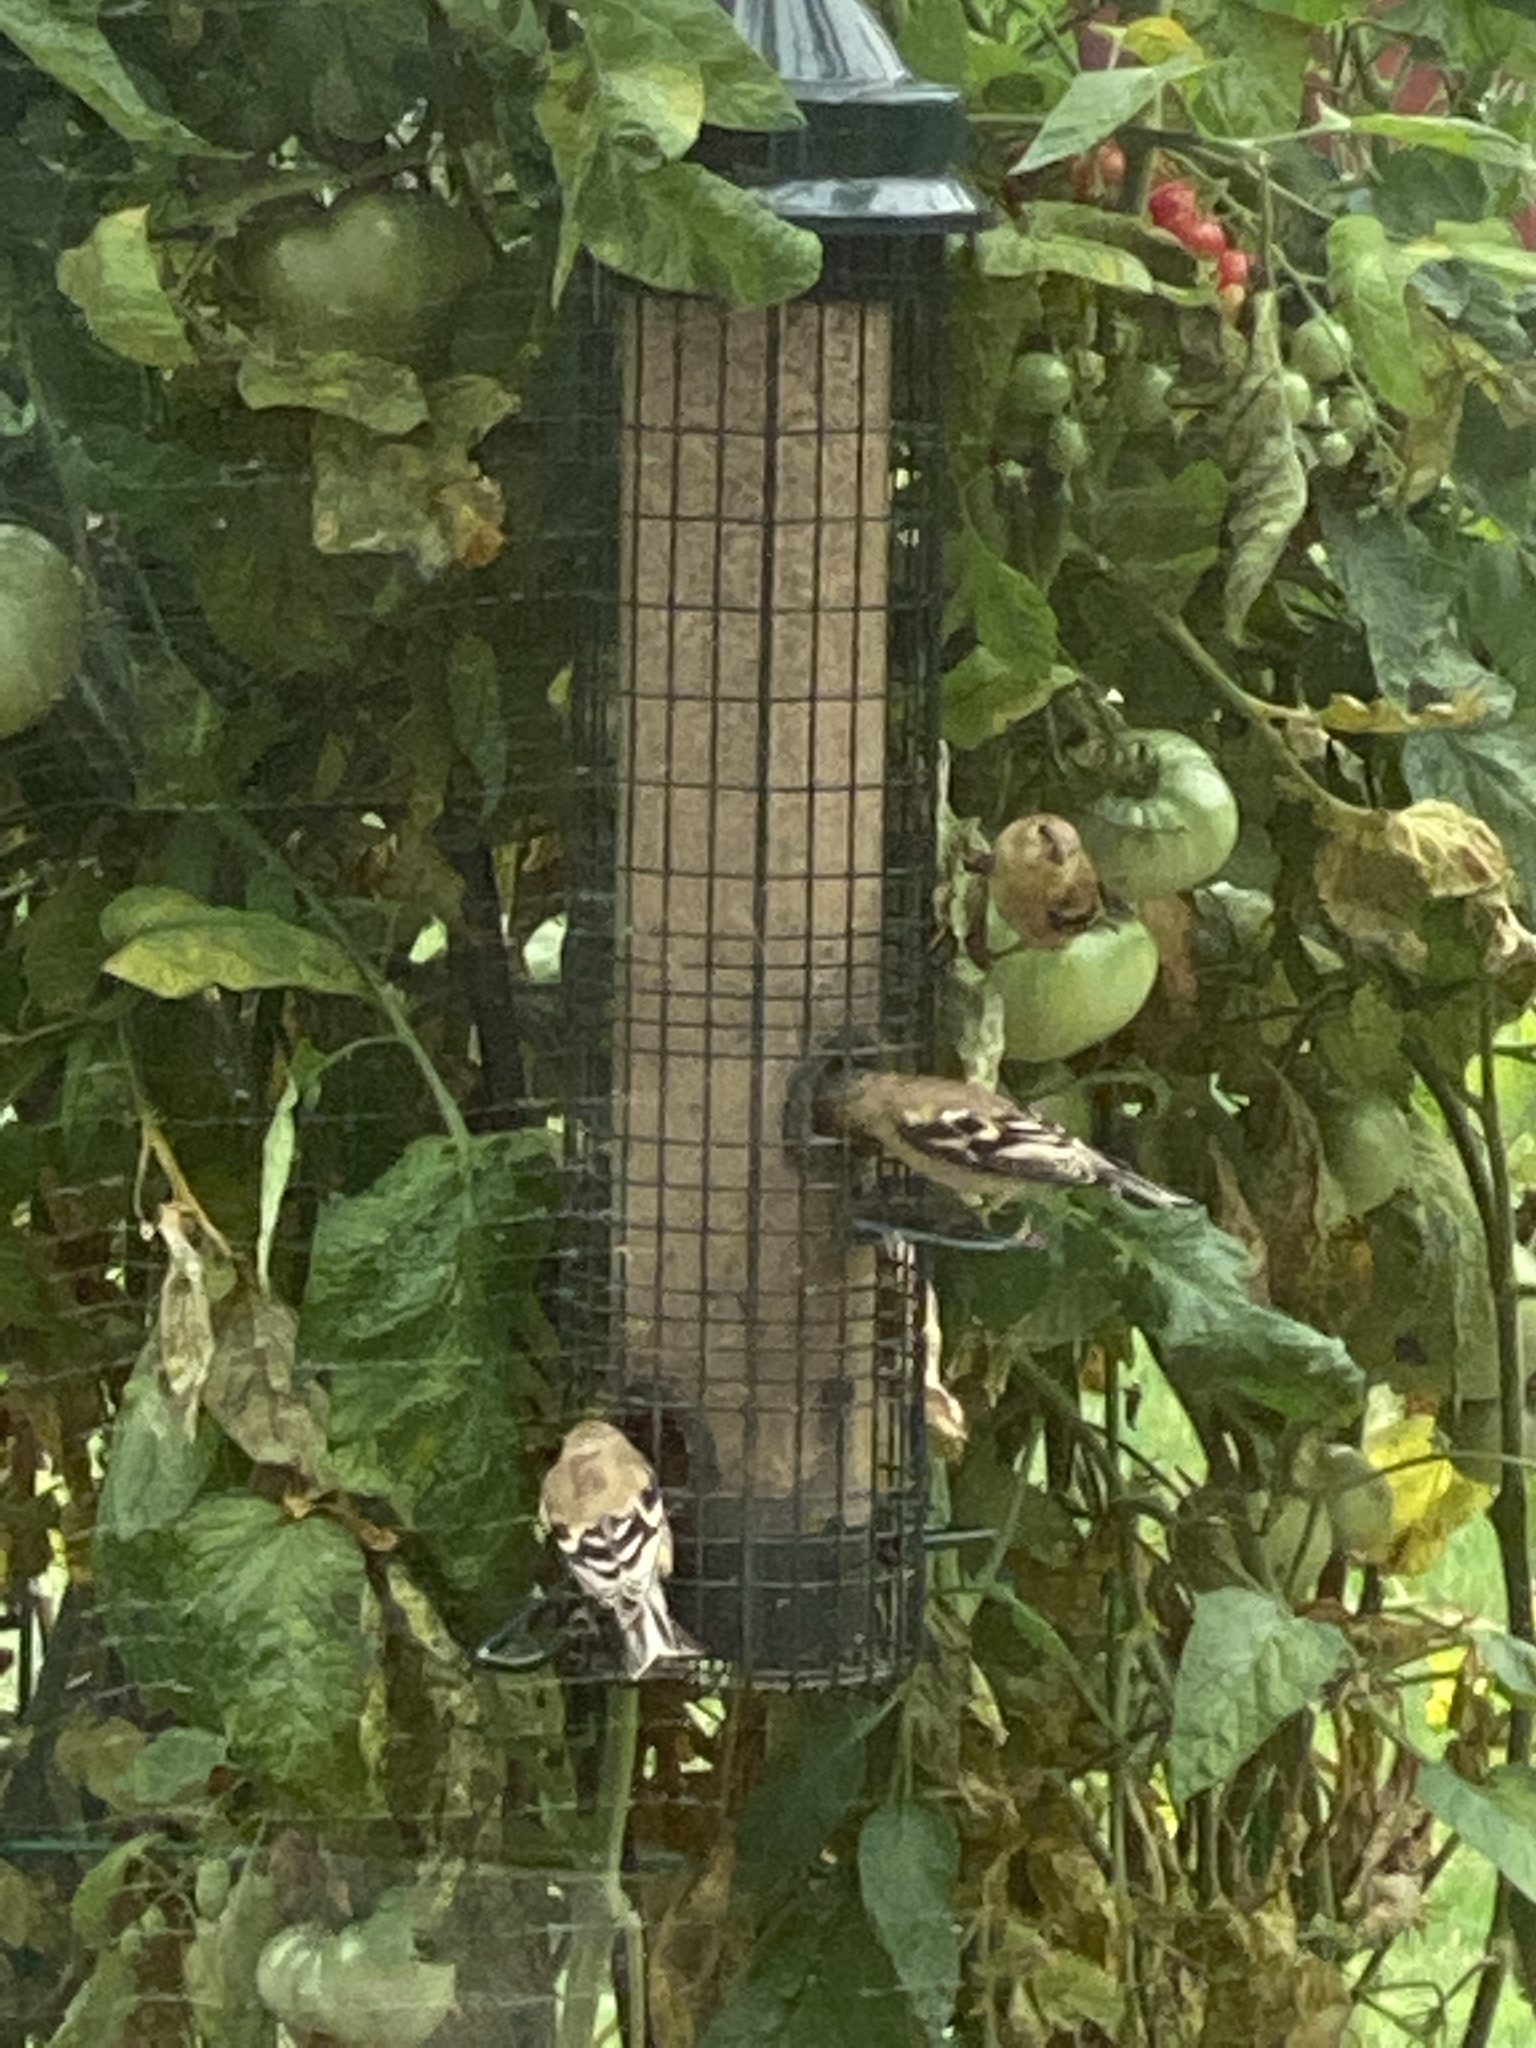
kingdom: Animalia
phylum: Chordata
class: Aves
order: Passeriformes
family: Fringillidae
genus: Spinus
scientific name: Spinus tristis
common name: American goldfinch
